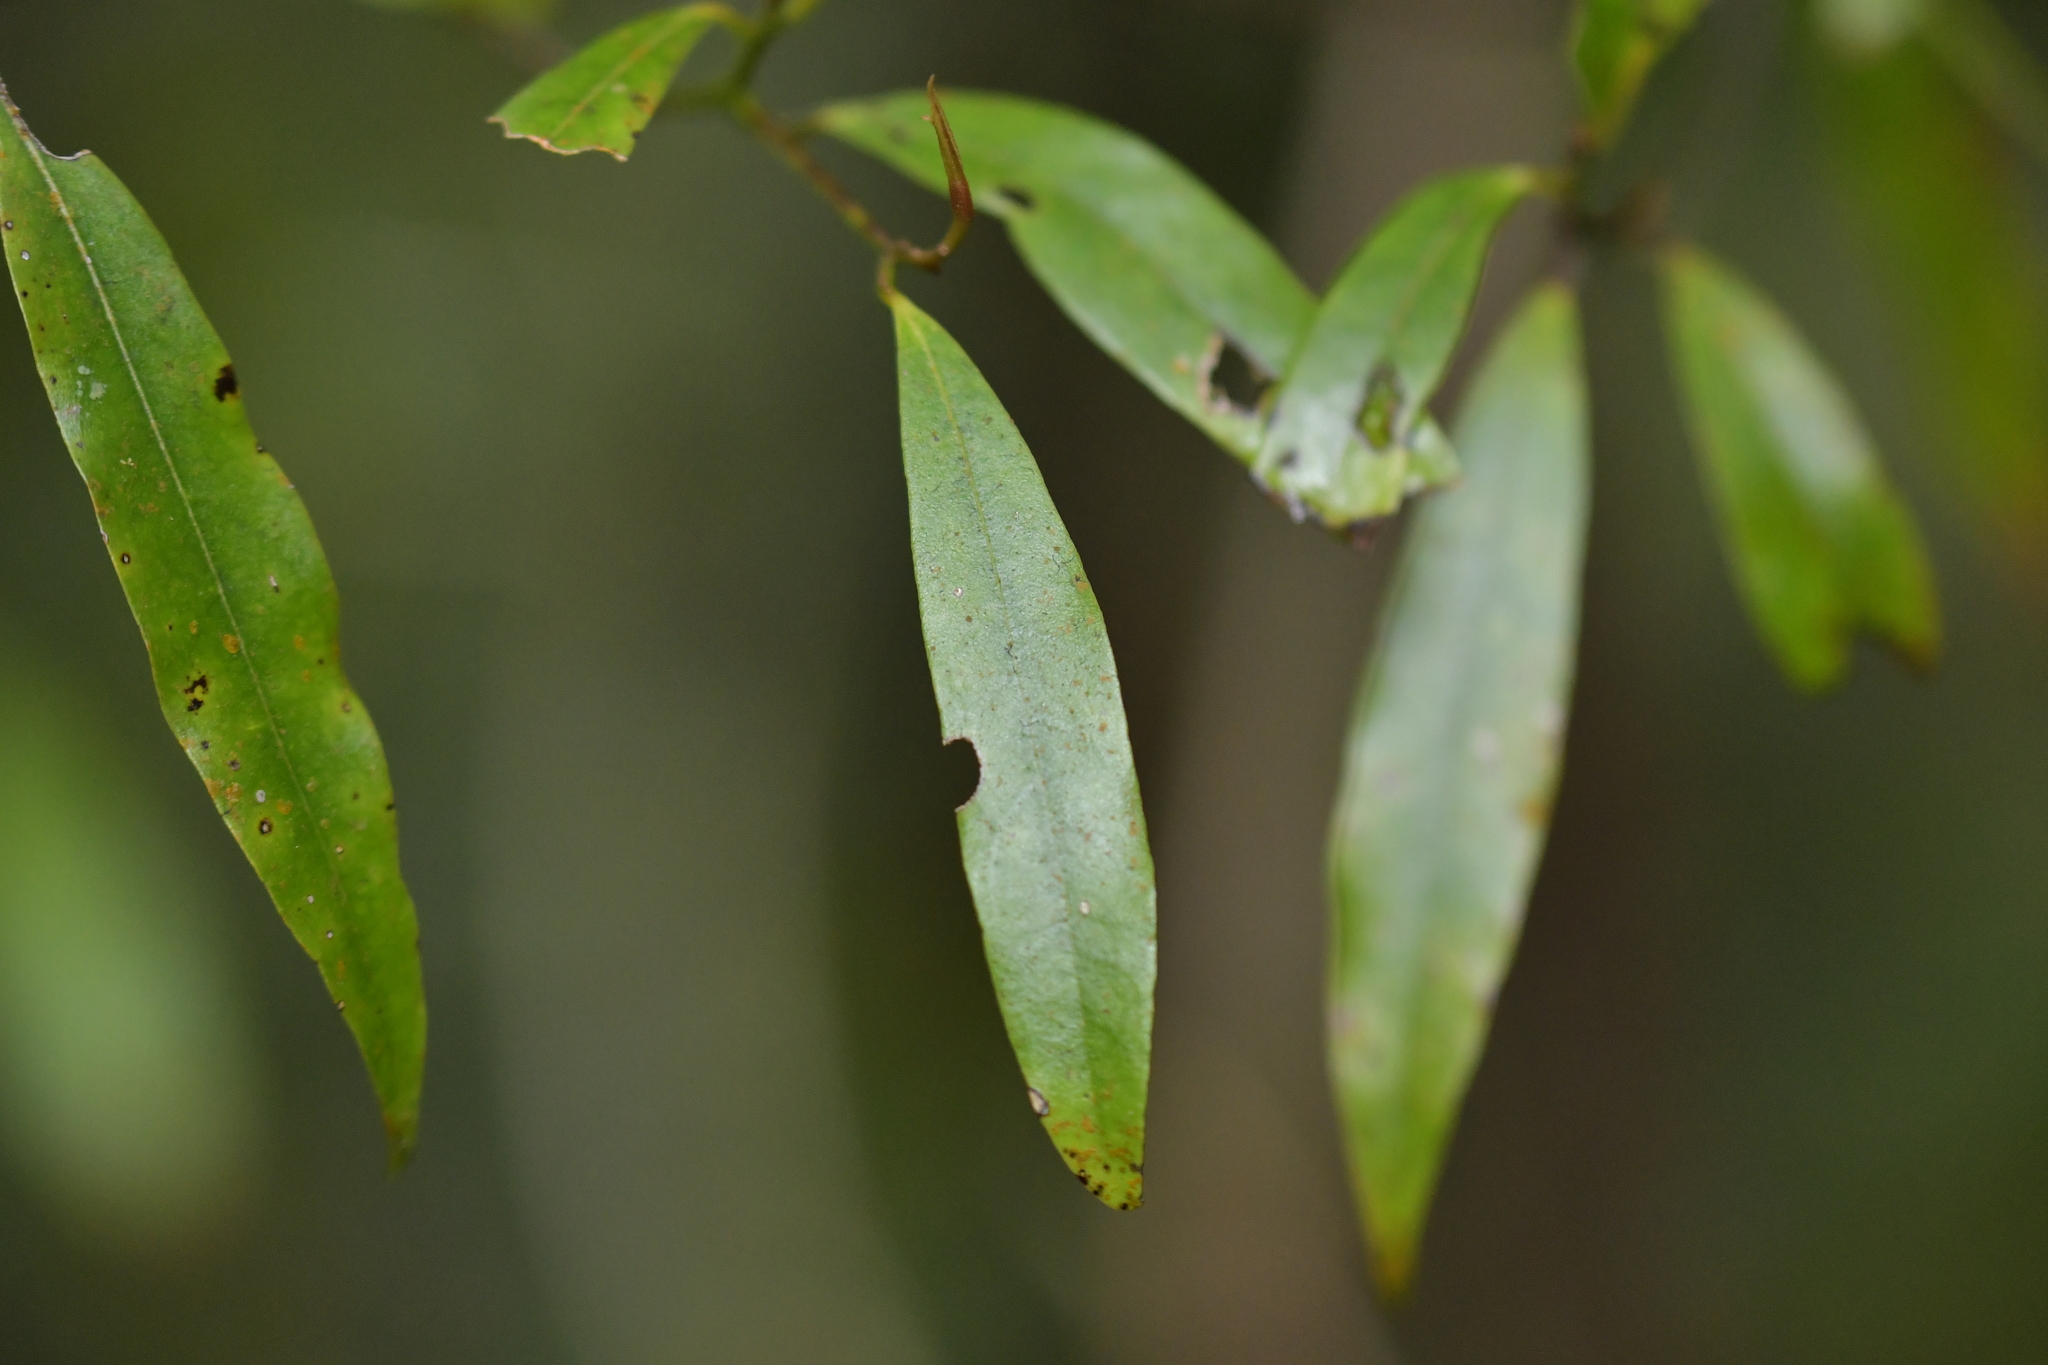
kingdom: Plantae
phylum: Tracheophyta
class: Magnoliopsida
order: Laurales
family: Lauraceae
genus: Beilschmiedia
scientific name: Beilschmiedia tawa
